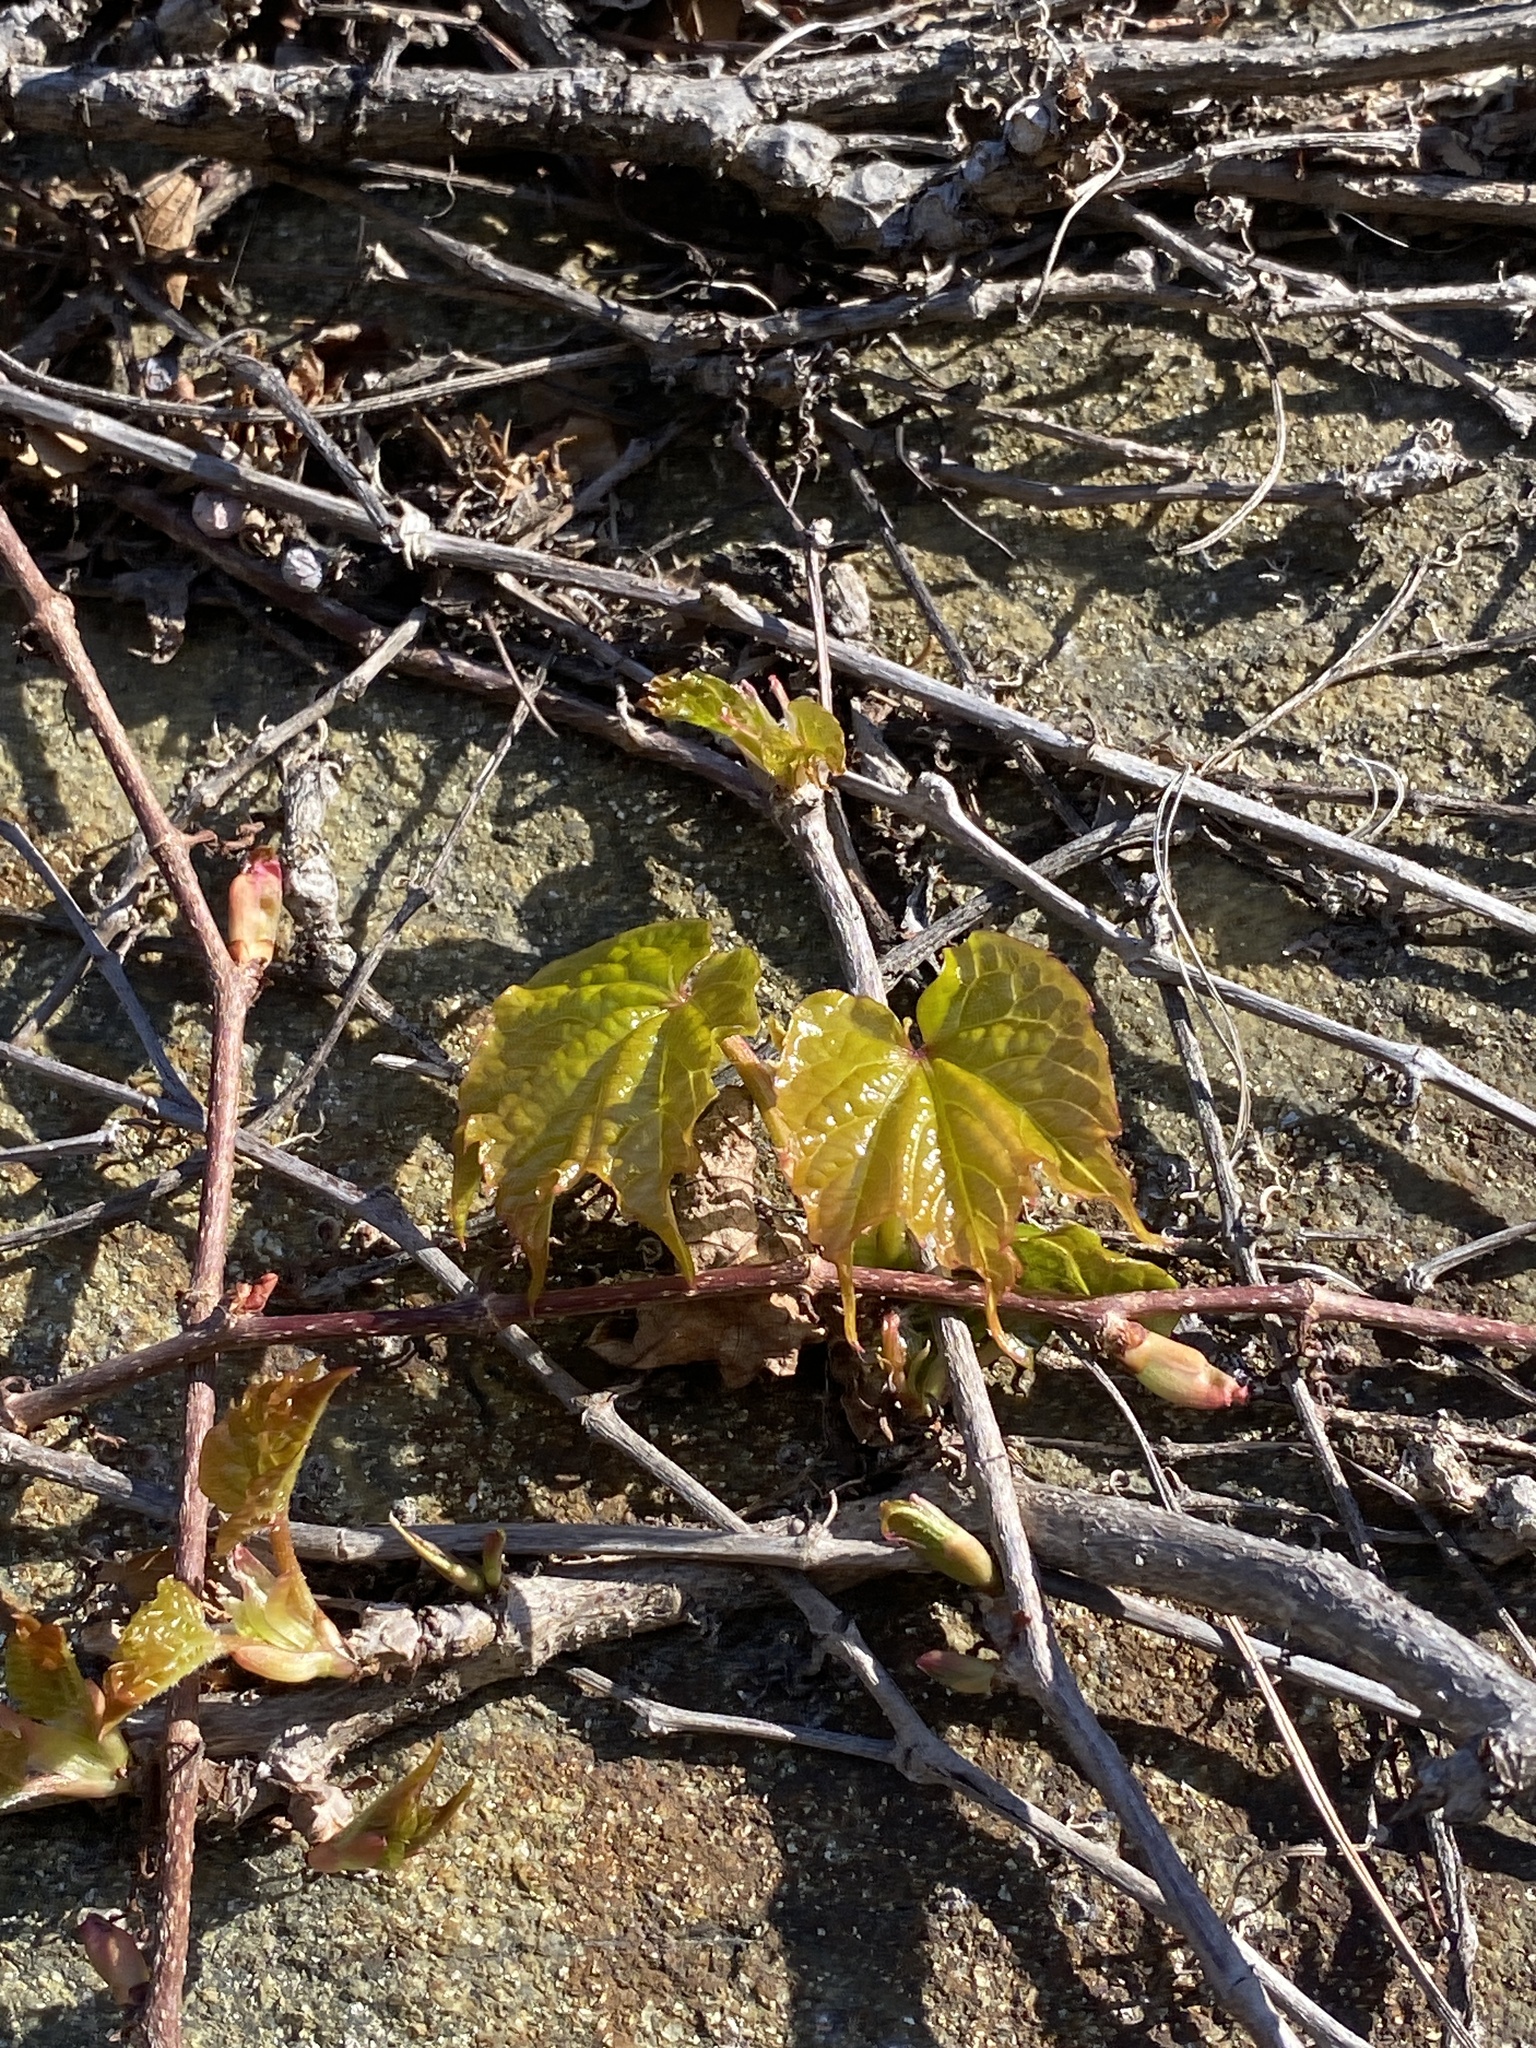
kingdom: Plantae
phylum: Tracheophyta
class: Magnoliopsida
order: Vitales
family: Vitaceae
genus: Parthenocissus
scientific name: Parthenocissus tricuspidata
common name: Boston ivy
